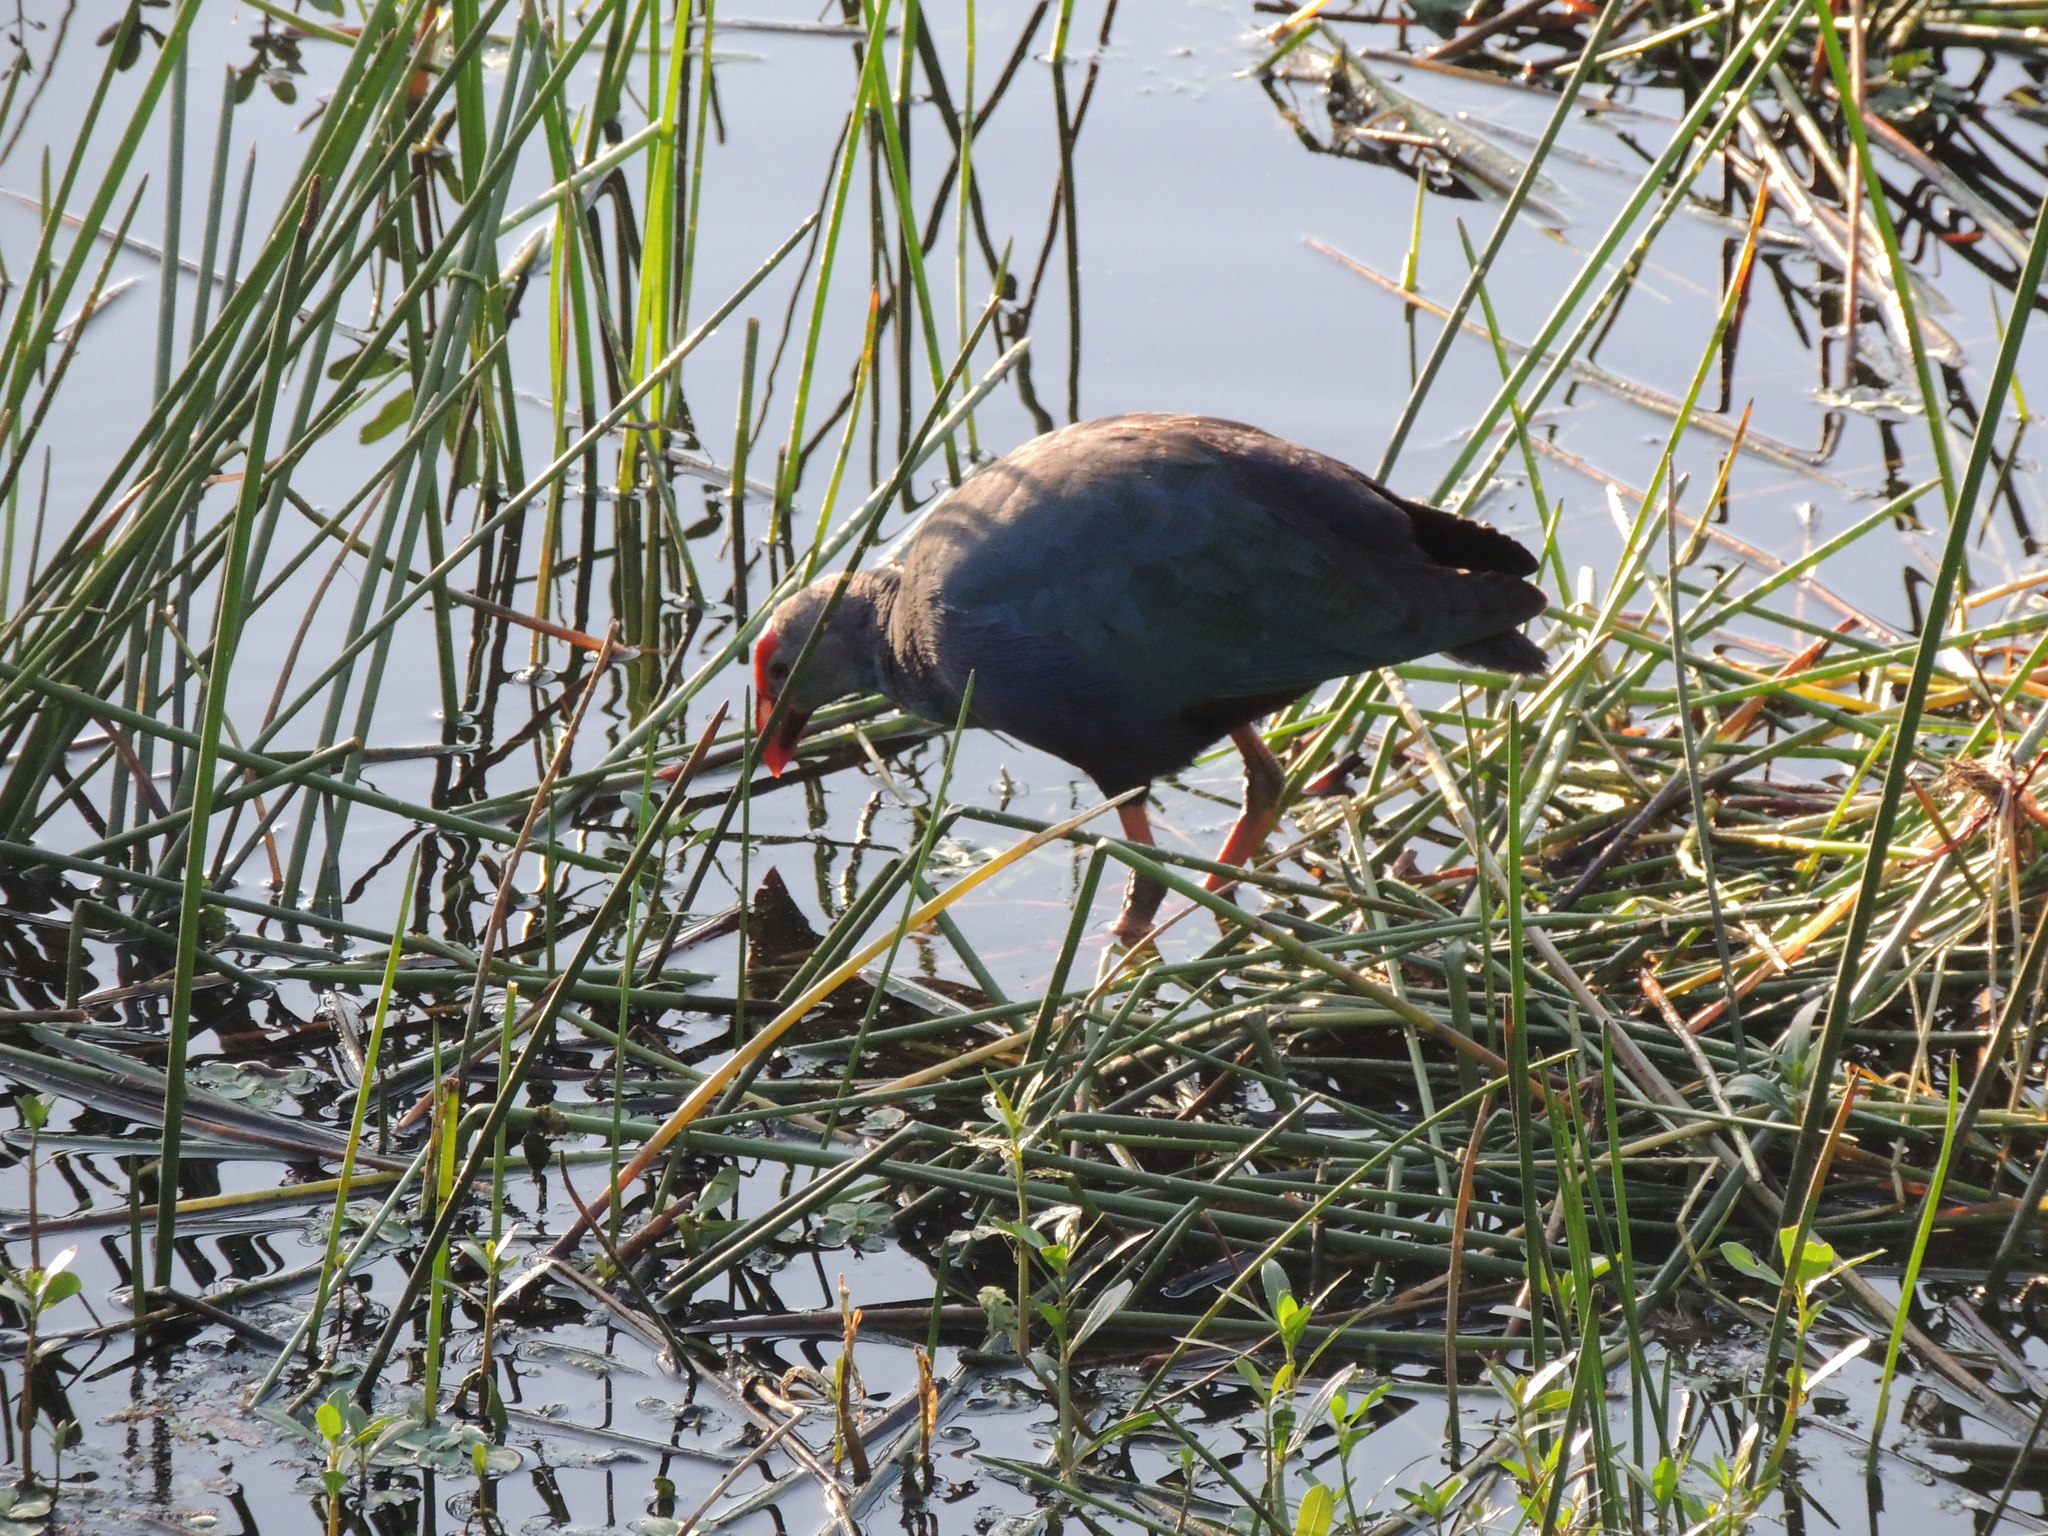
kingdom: Animalia
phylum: Chordata
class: Aves
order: Gruiformes
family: Rallidae
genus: Porphyrio
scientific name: Porphyrio porphyrio
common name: Purple swamphen
